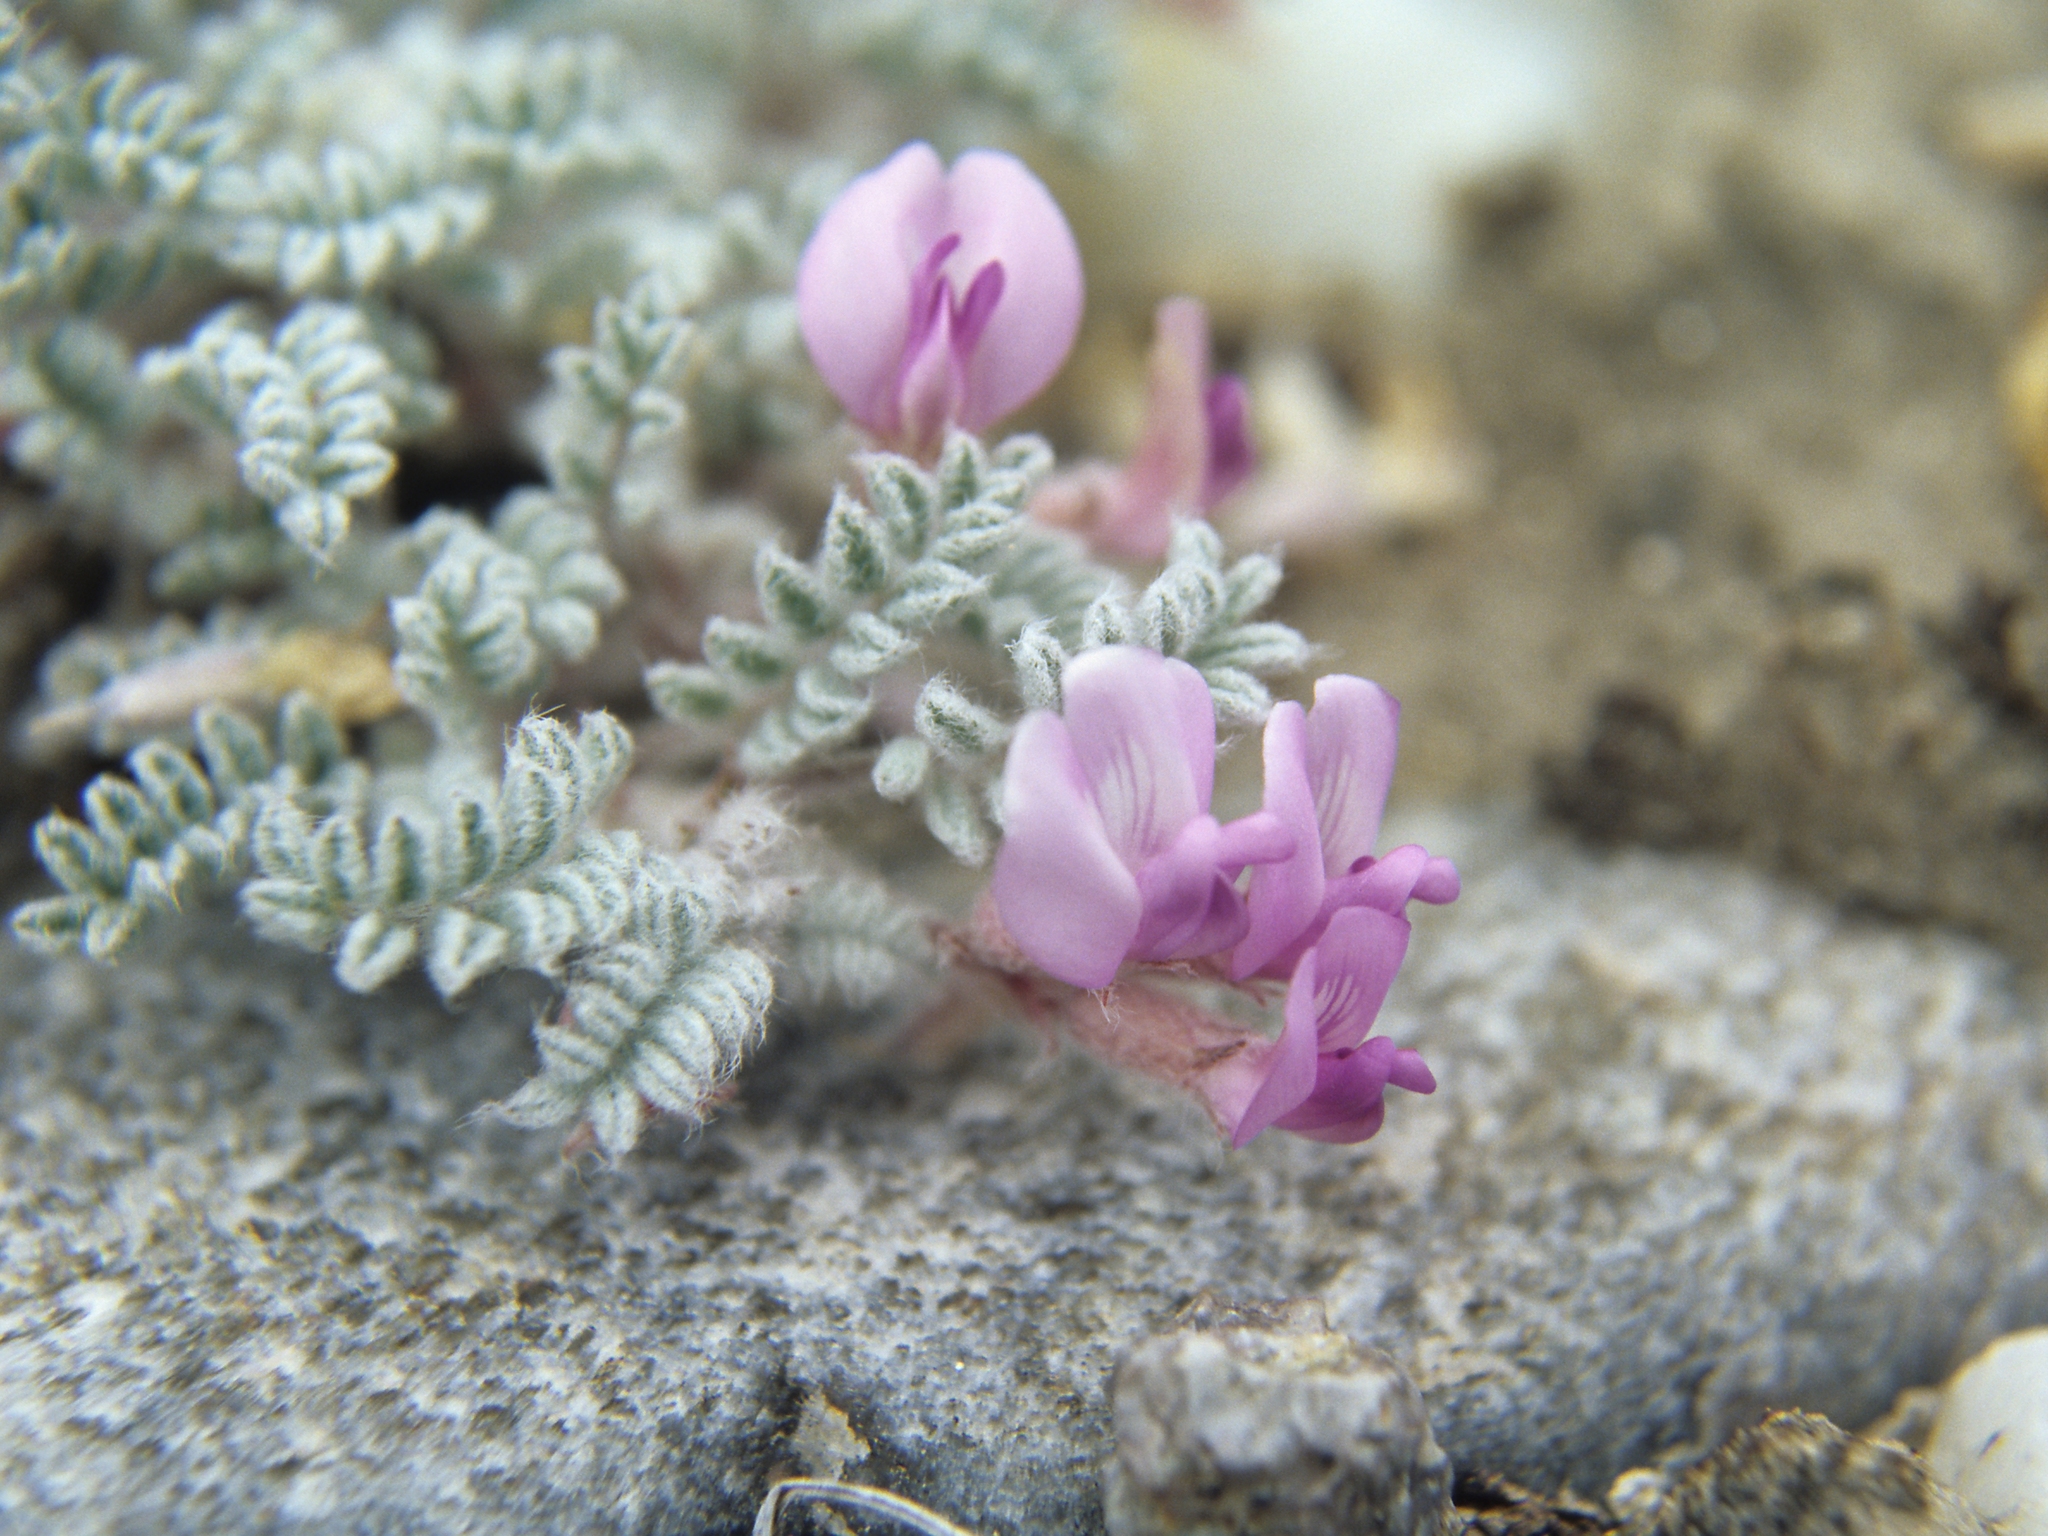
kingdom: Plantae
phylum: Tracheophyta
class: Magnoliopsida
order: Fabales
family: Fabaceae
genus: Astragalus
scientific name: Astragalus anserinus
